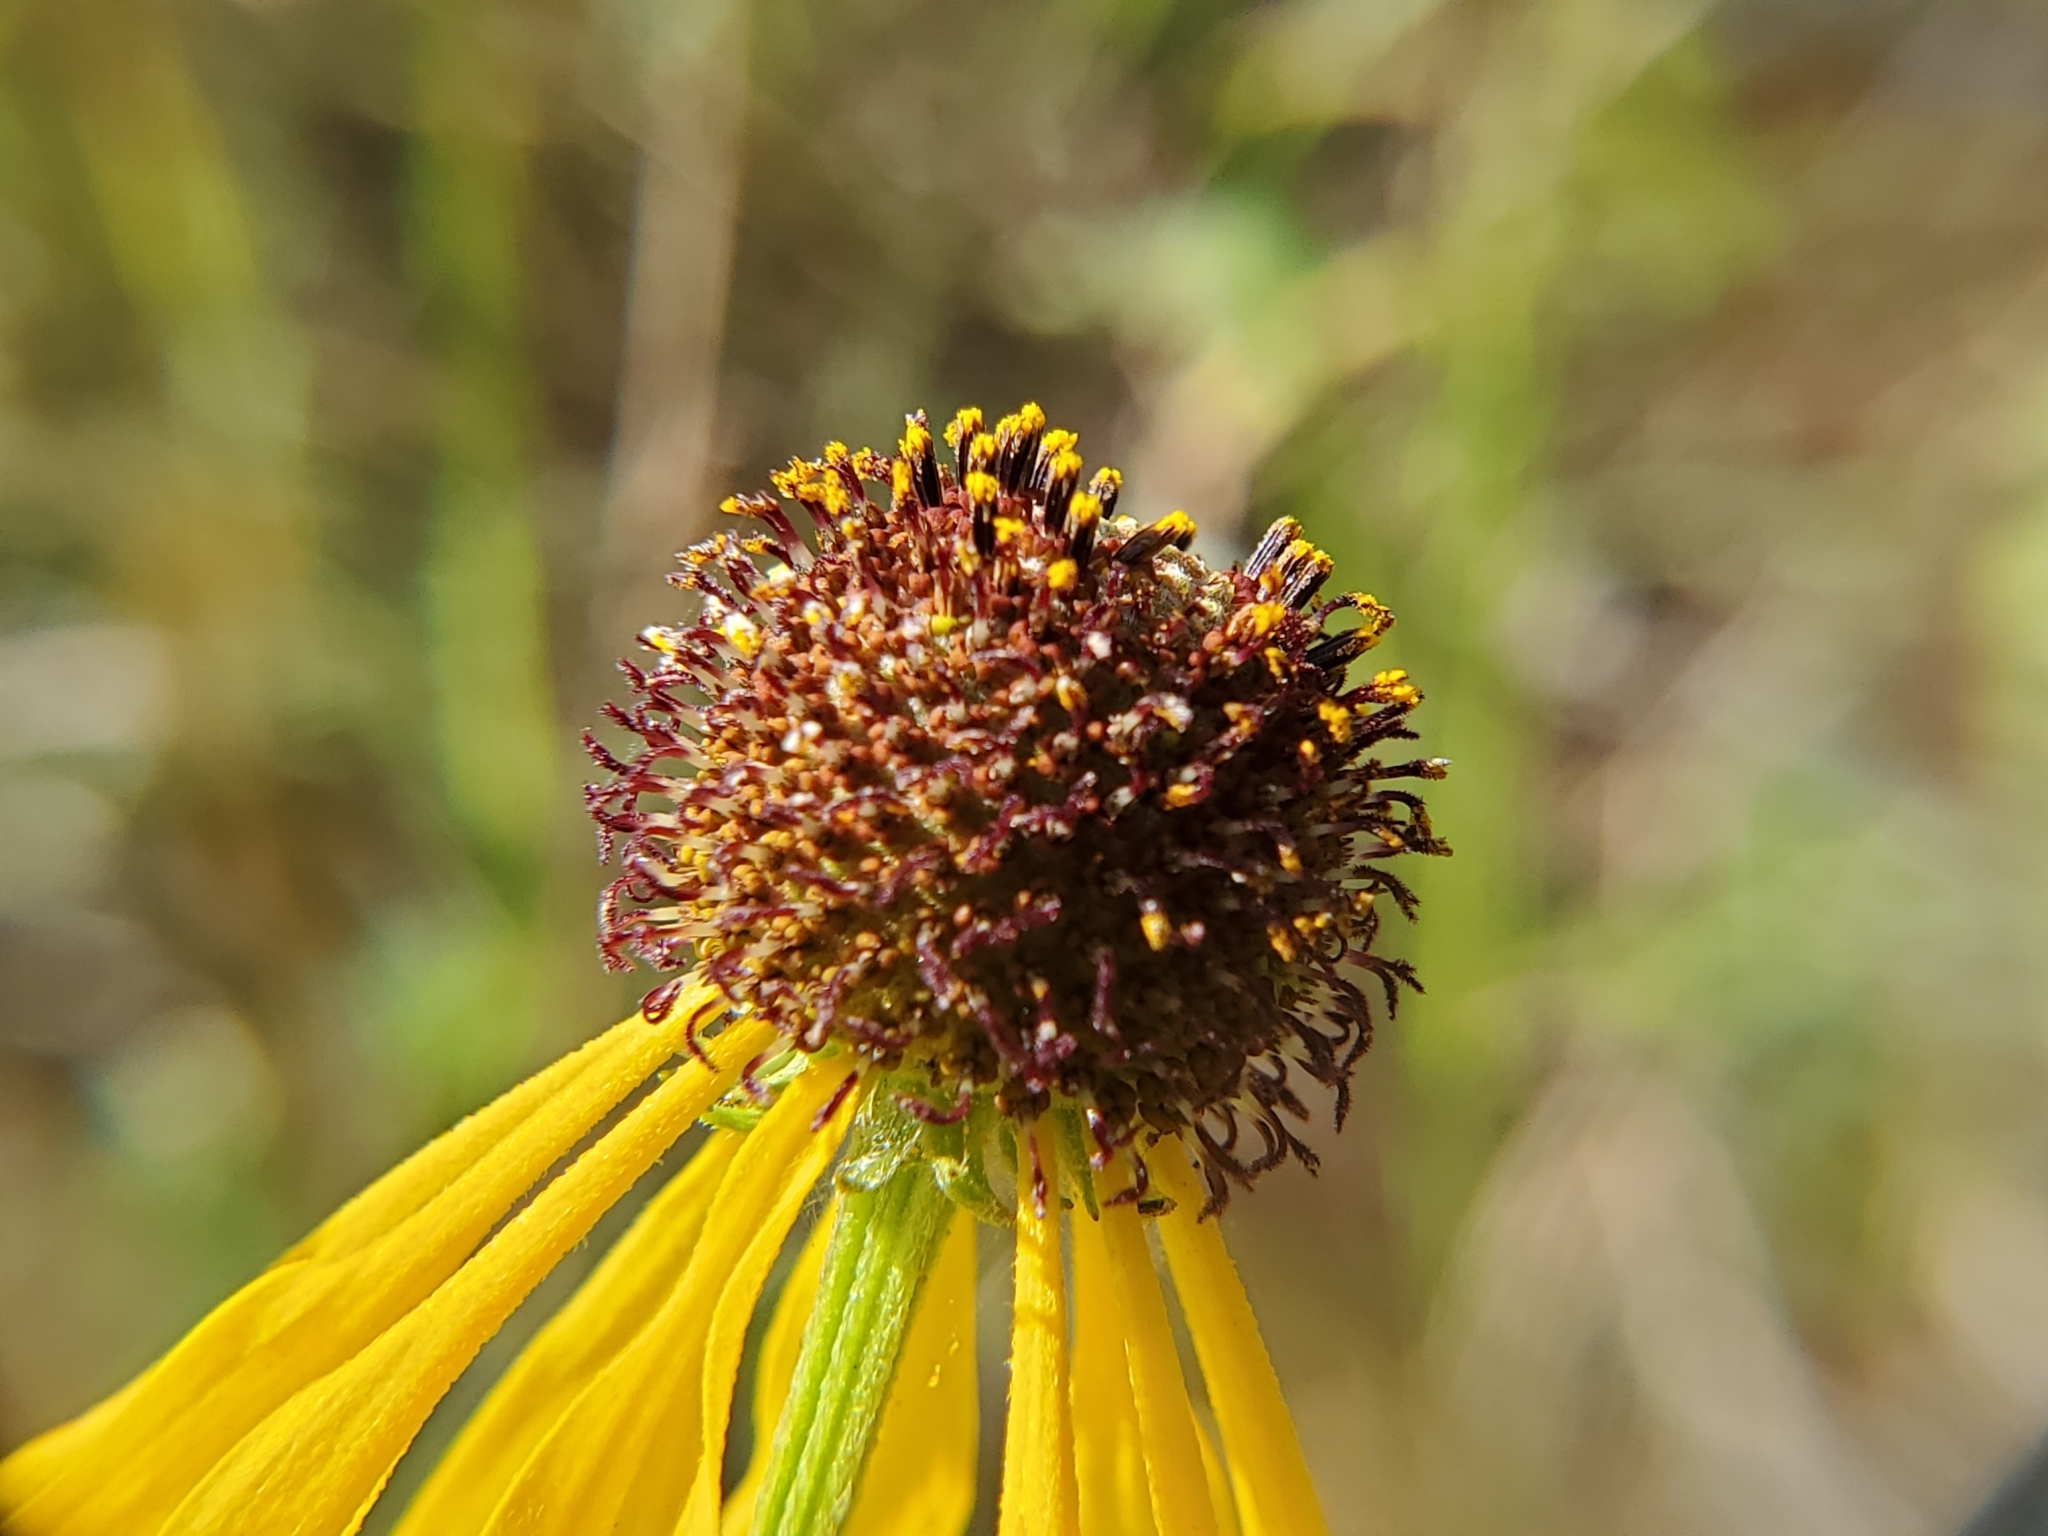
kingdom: Plantae
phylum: Tracheophyta
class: Magnoliopsida
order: Asterales
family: Asteraceae
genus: Ratibida
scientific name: Ratibida pinnata
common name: Drooping prairie-coneflower
